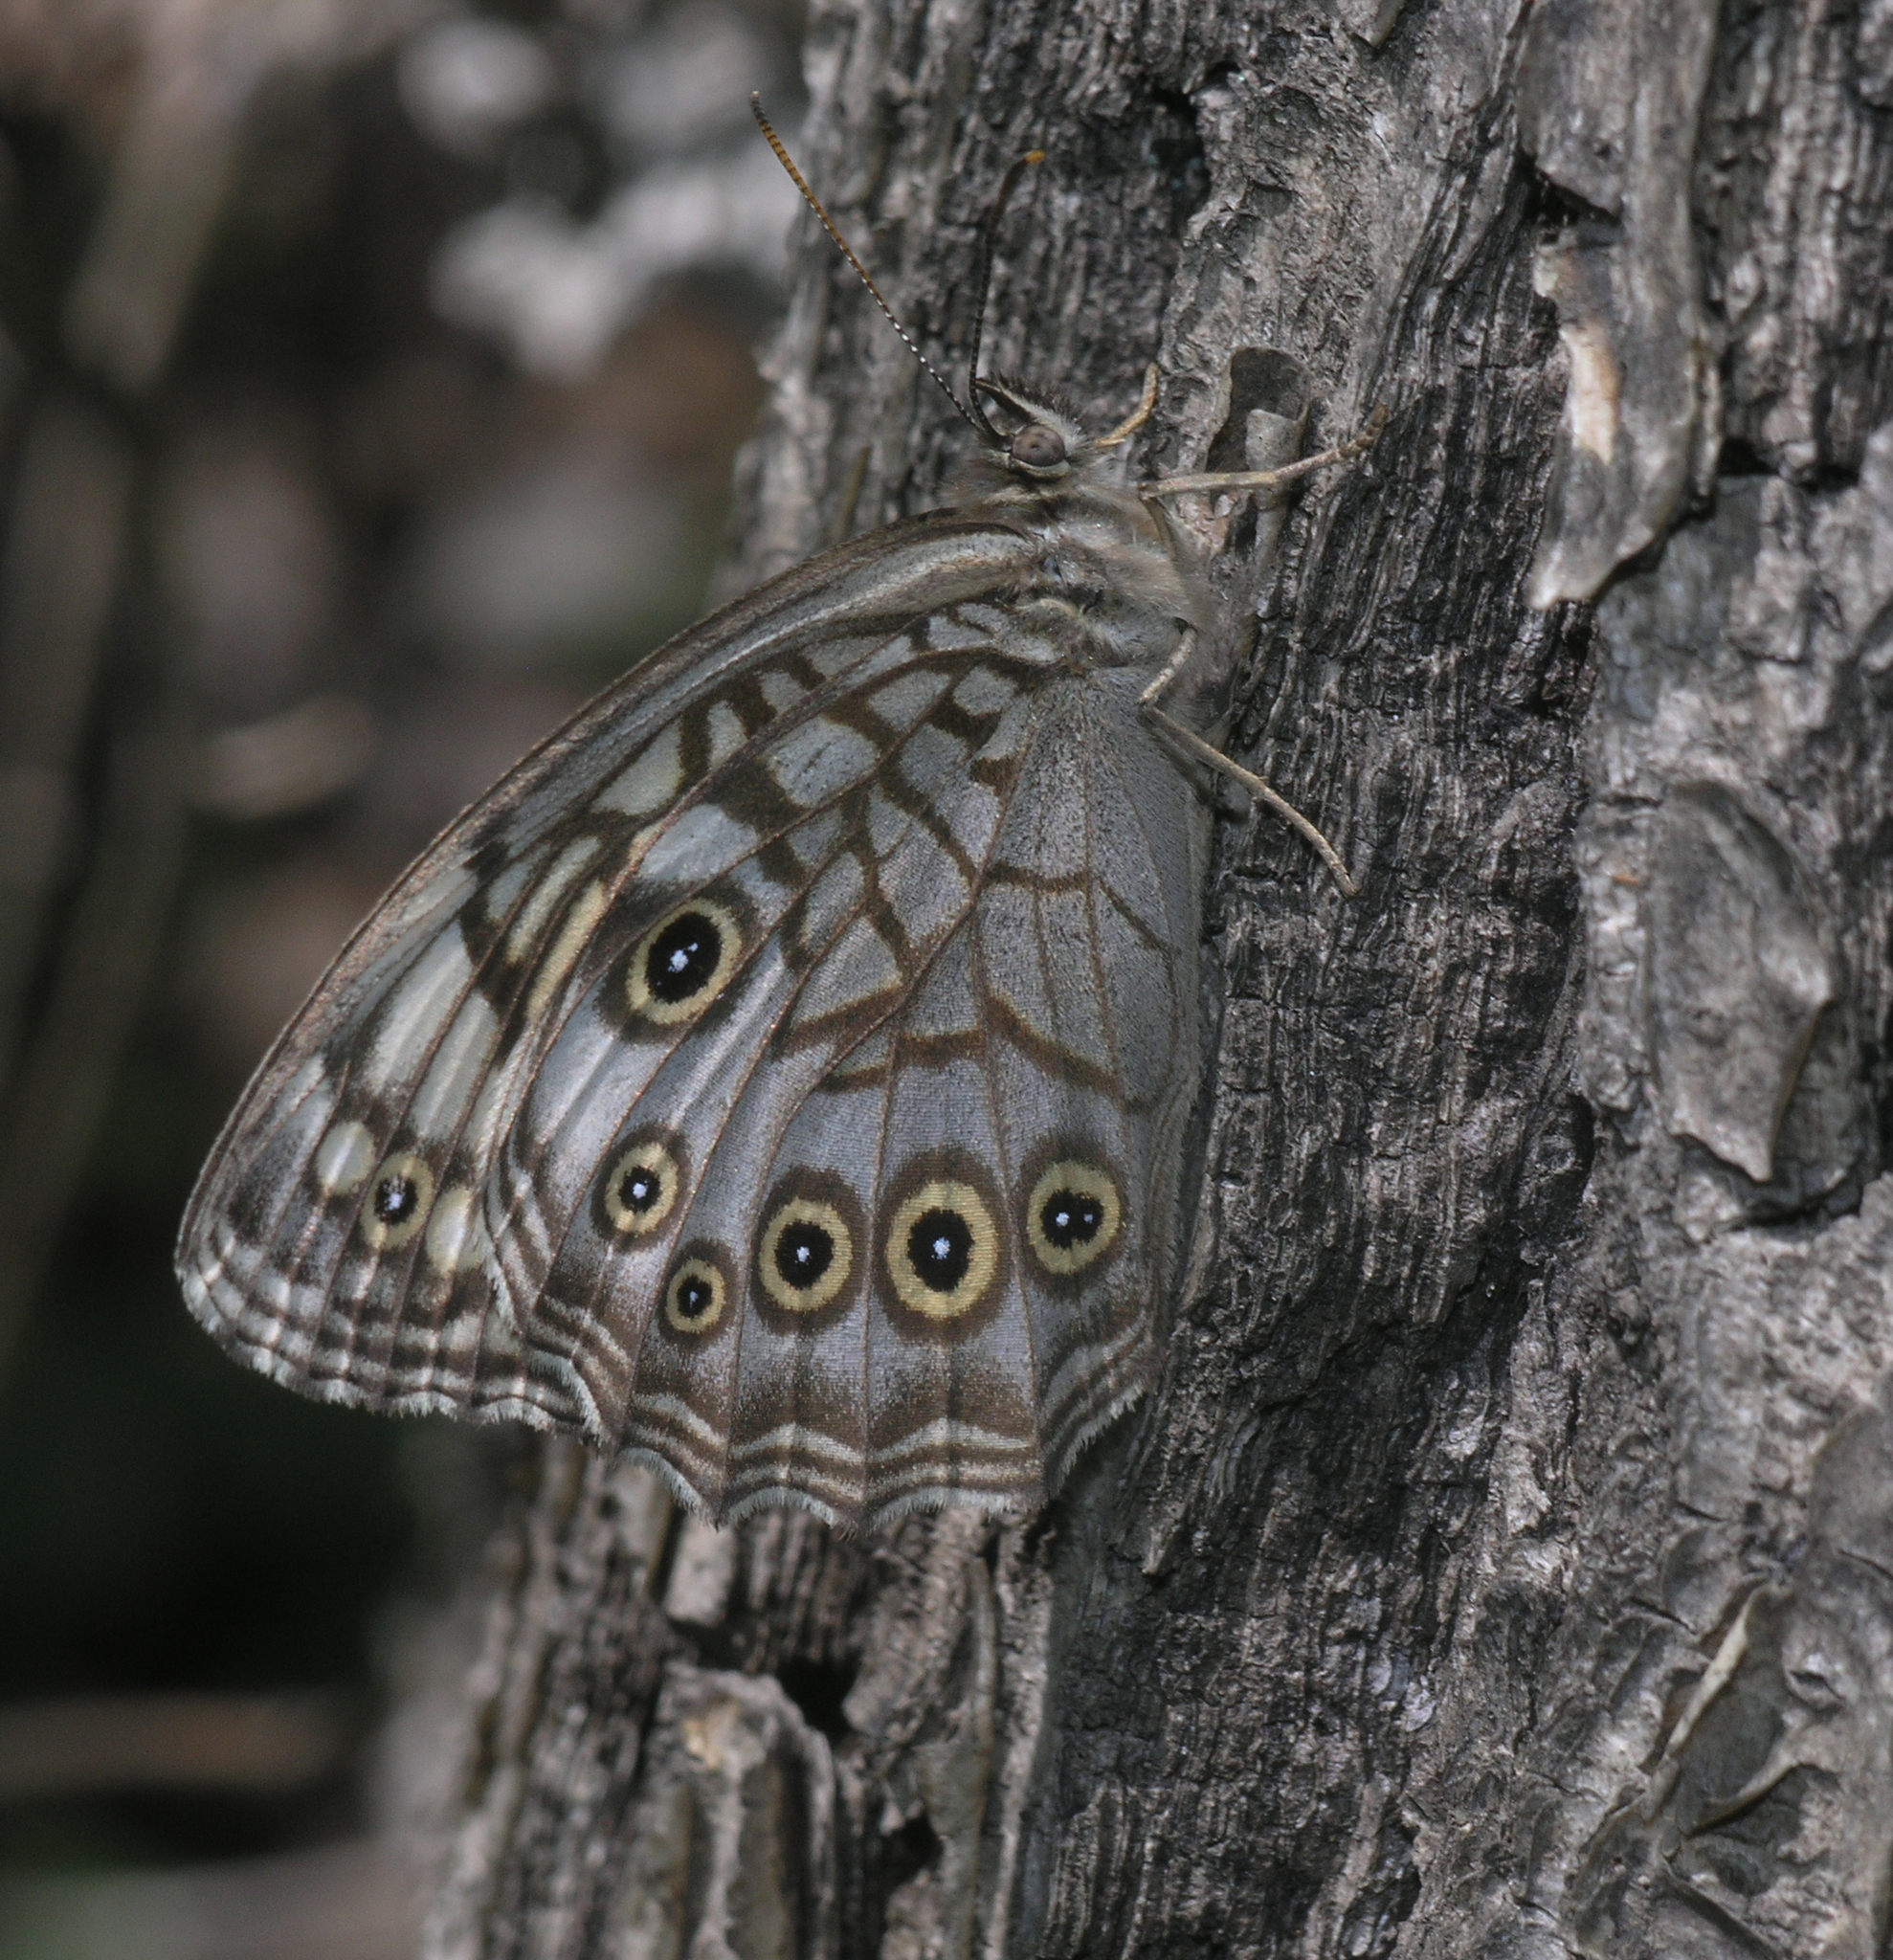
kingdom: Animalia
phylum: Arthropoda
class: Insecta
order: Lepidoptera
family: Nymphalidae
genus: Kirinia
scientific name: Kirinia epimenides
